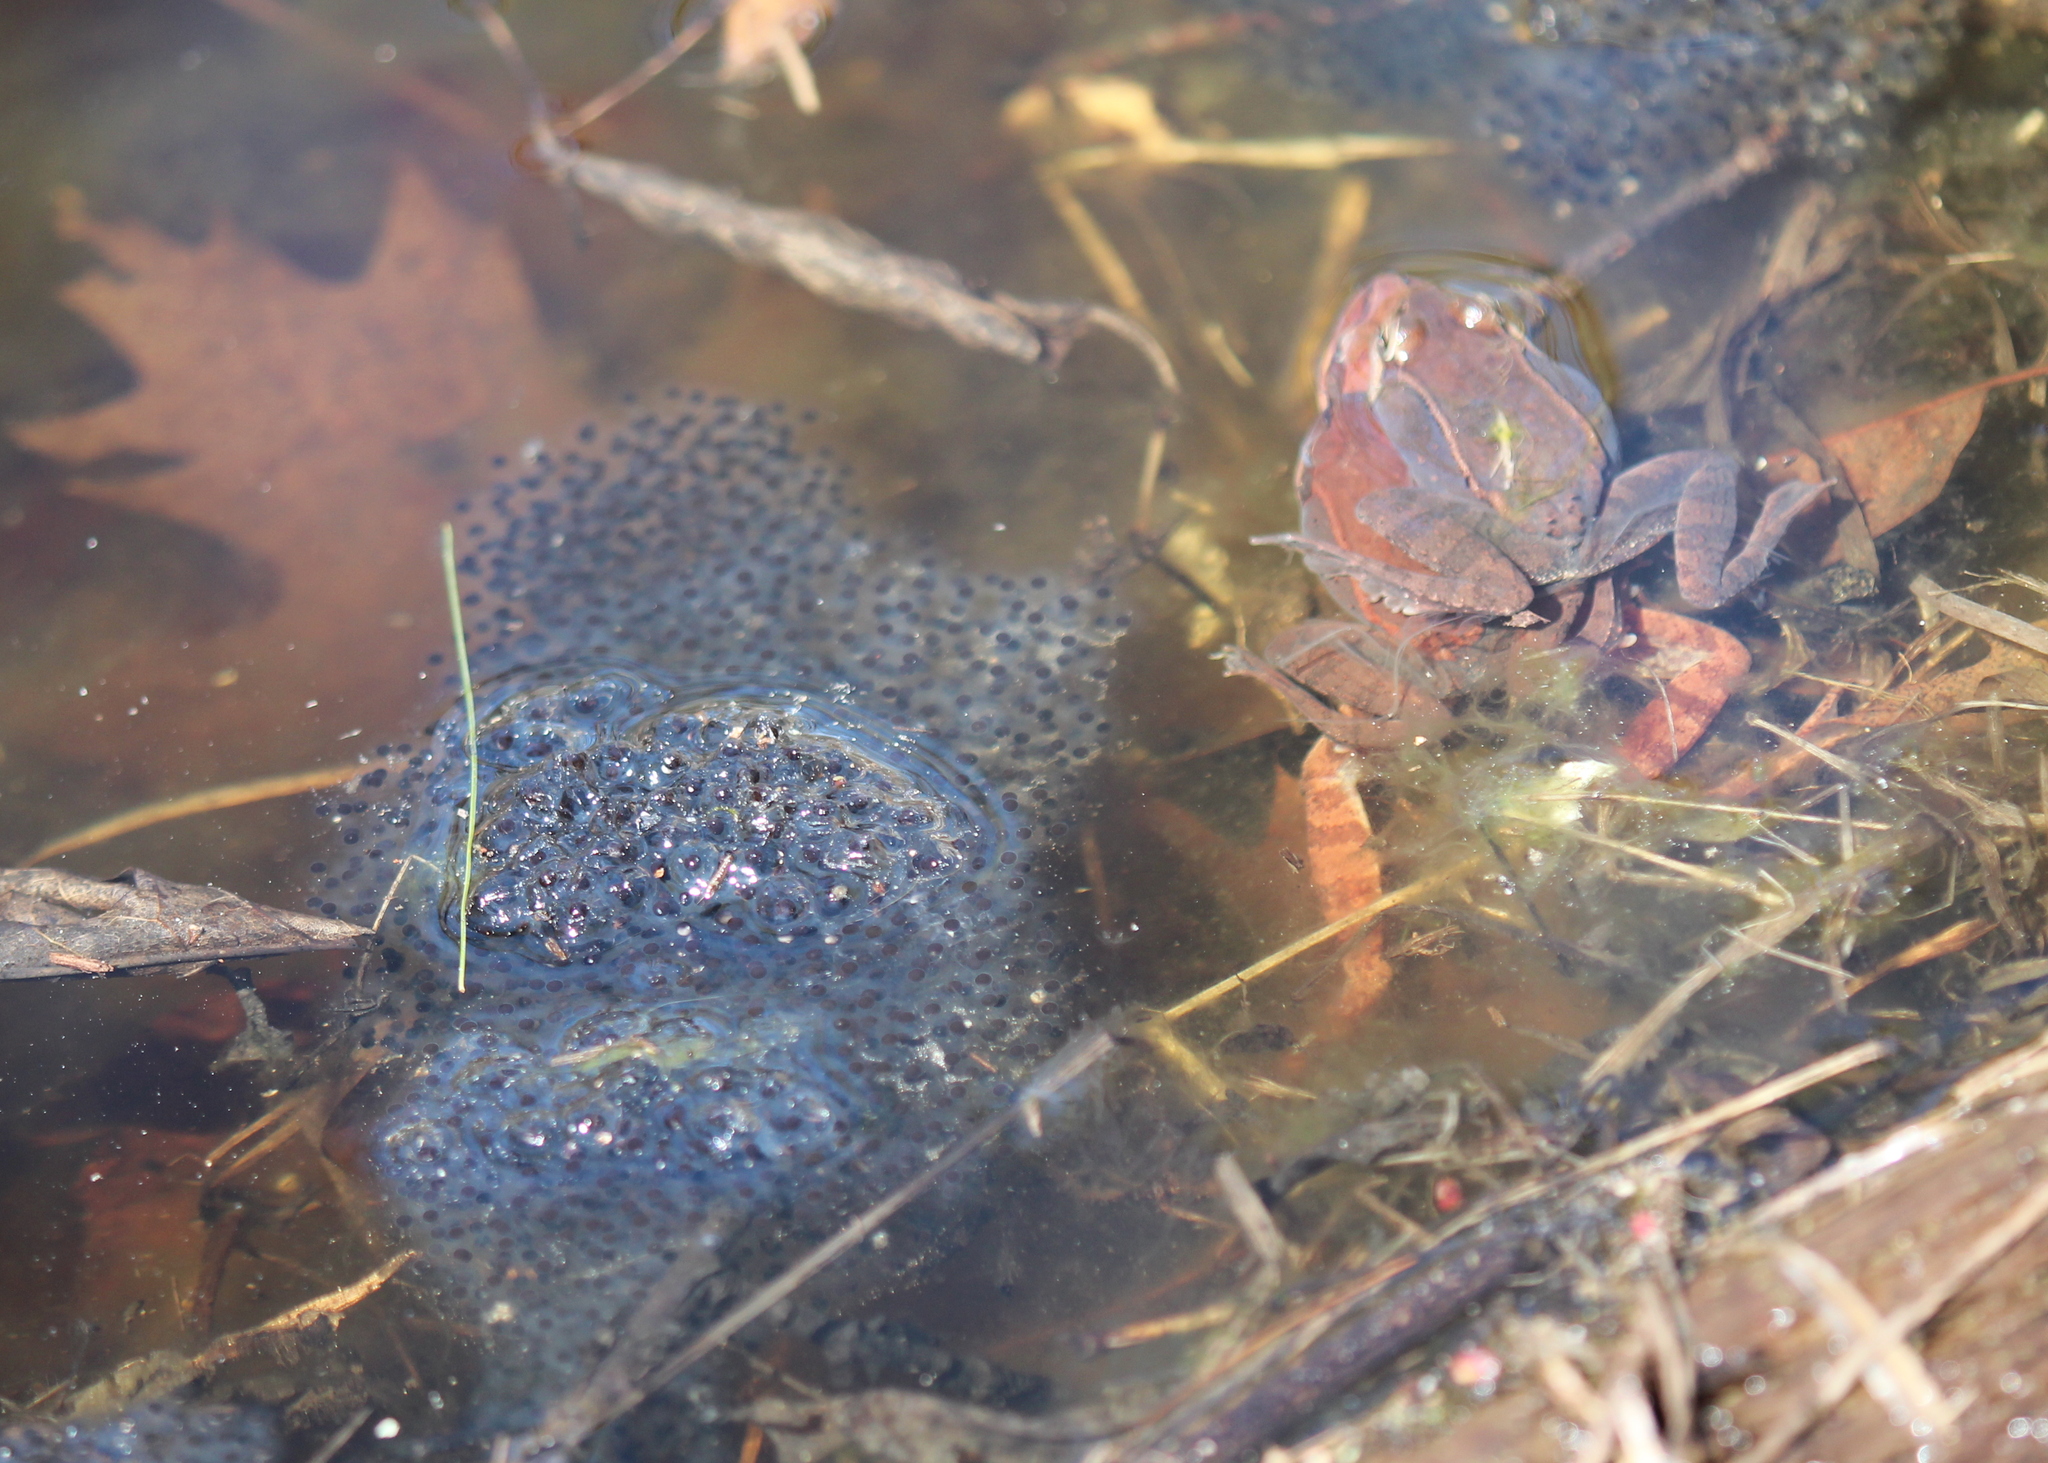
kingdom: Animalia
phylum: Chordata
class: Amphibia
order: Anura
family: Ranidae
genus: Lithobates
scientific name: Lithobates sylvaticus
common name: Wood frog
